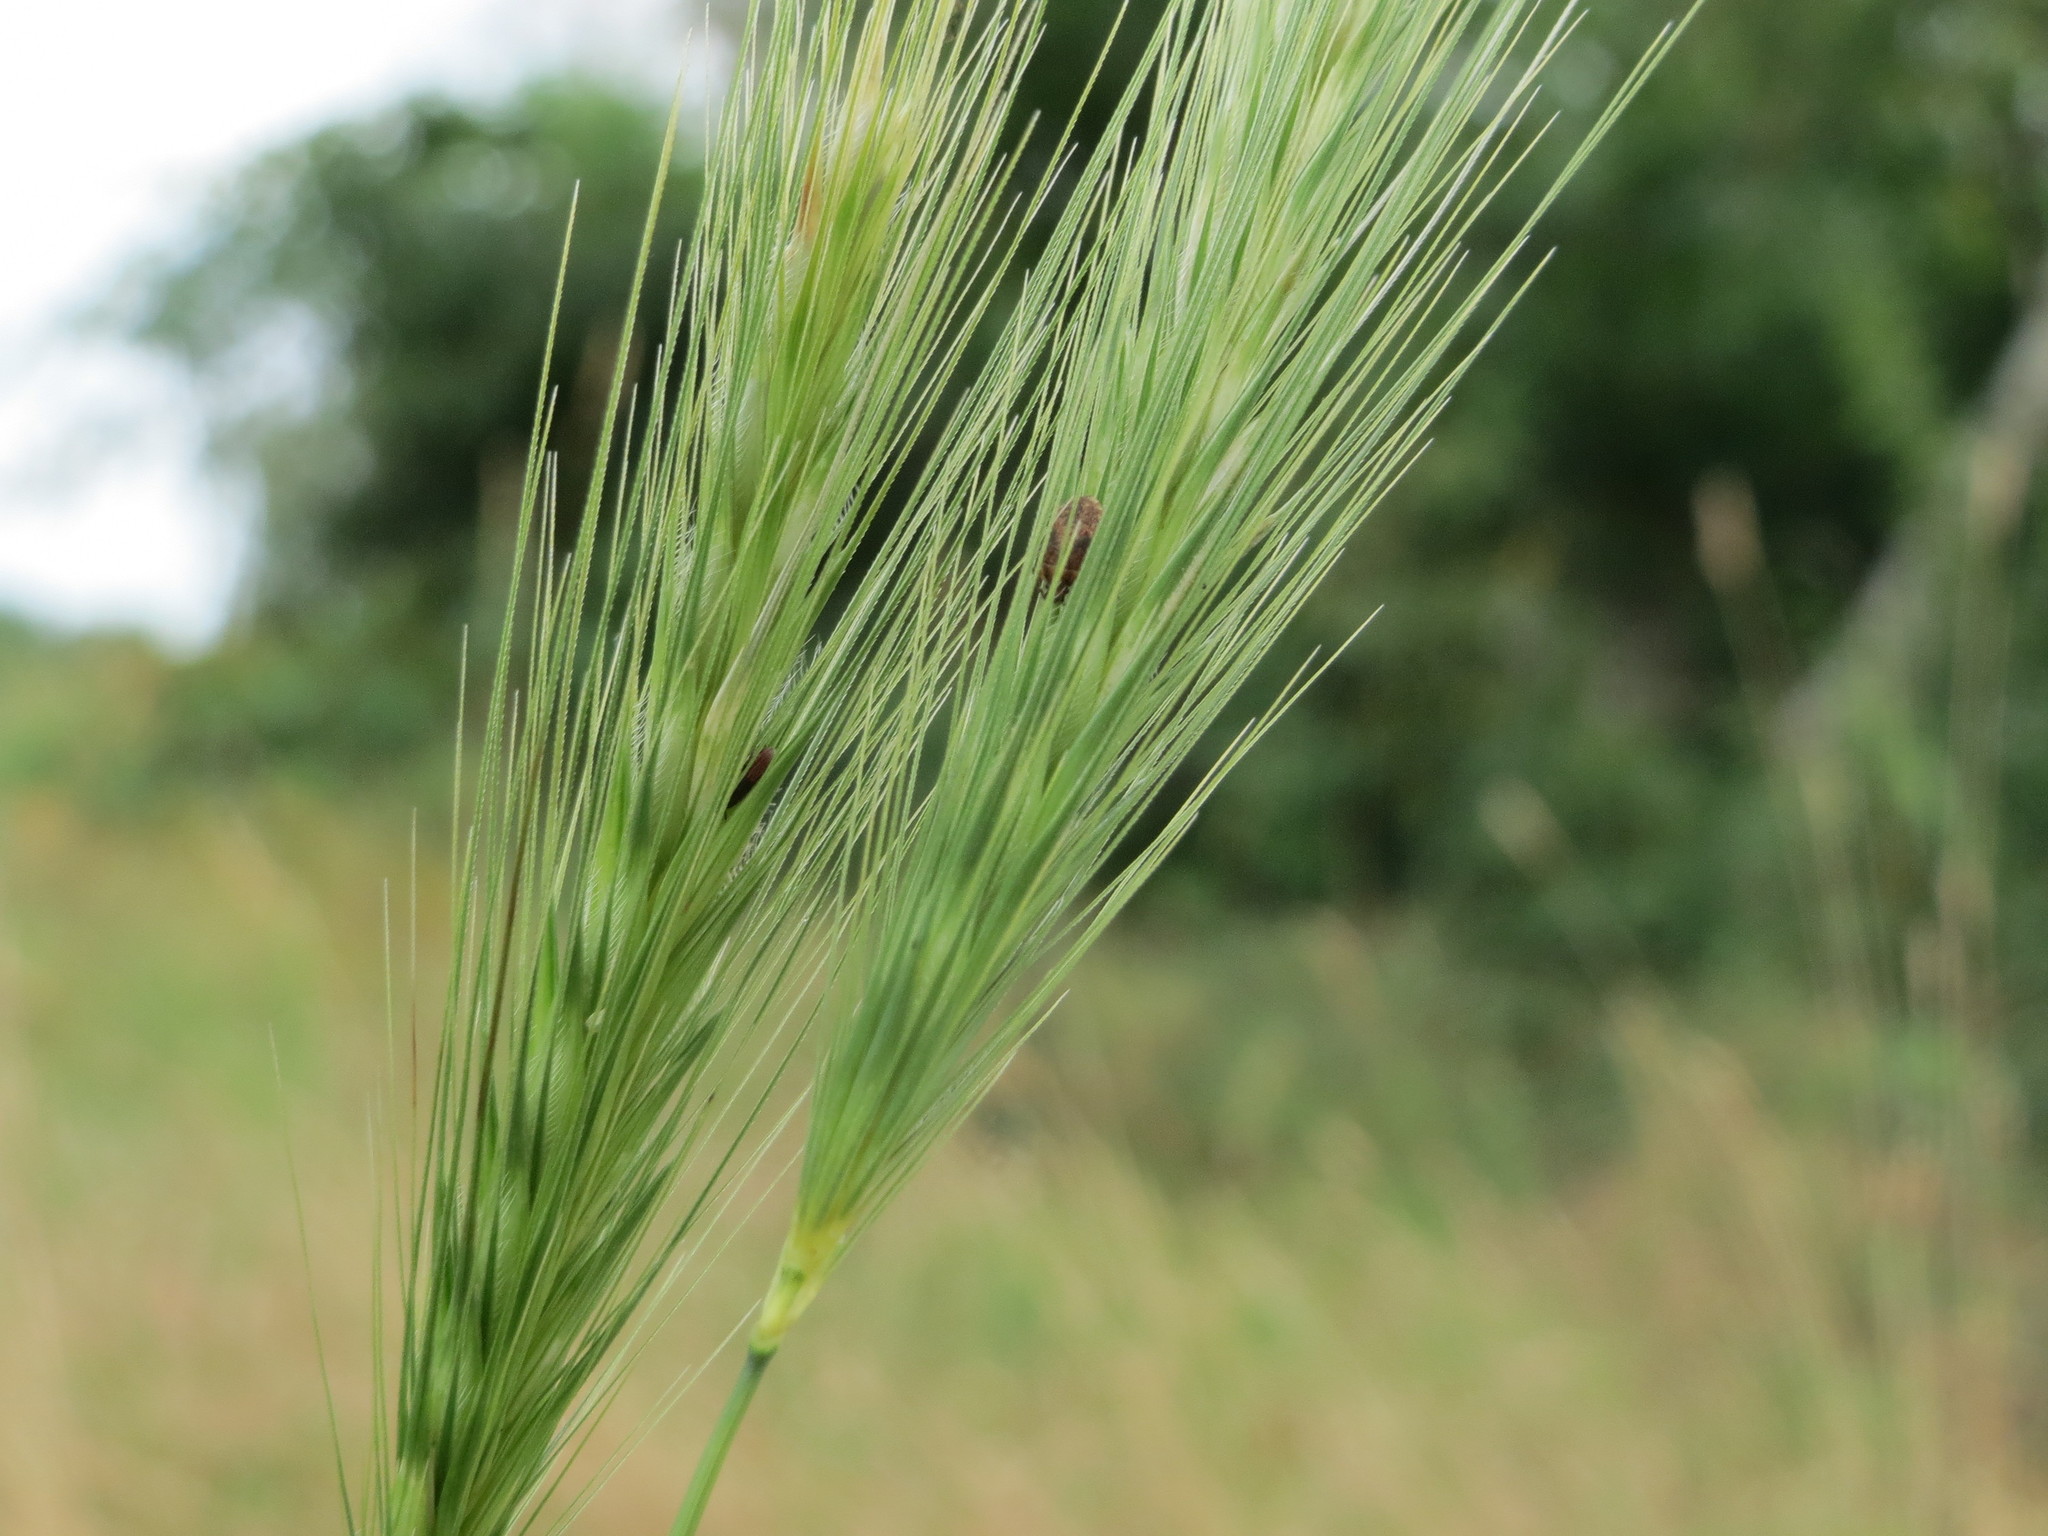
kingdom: Plantae
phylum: Tracheophyta
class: Liliopsida
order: Poales
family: Poaceae
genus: Hordeum
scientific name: Hordeum murinum
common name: Wall barley
